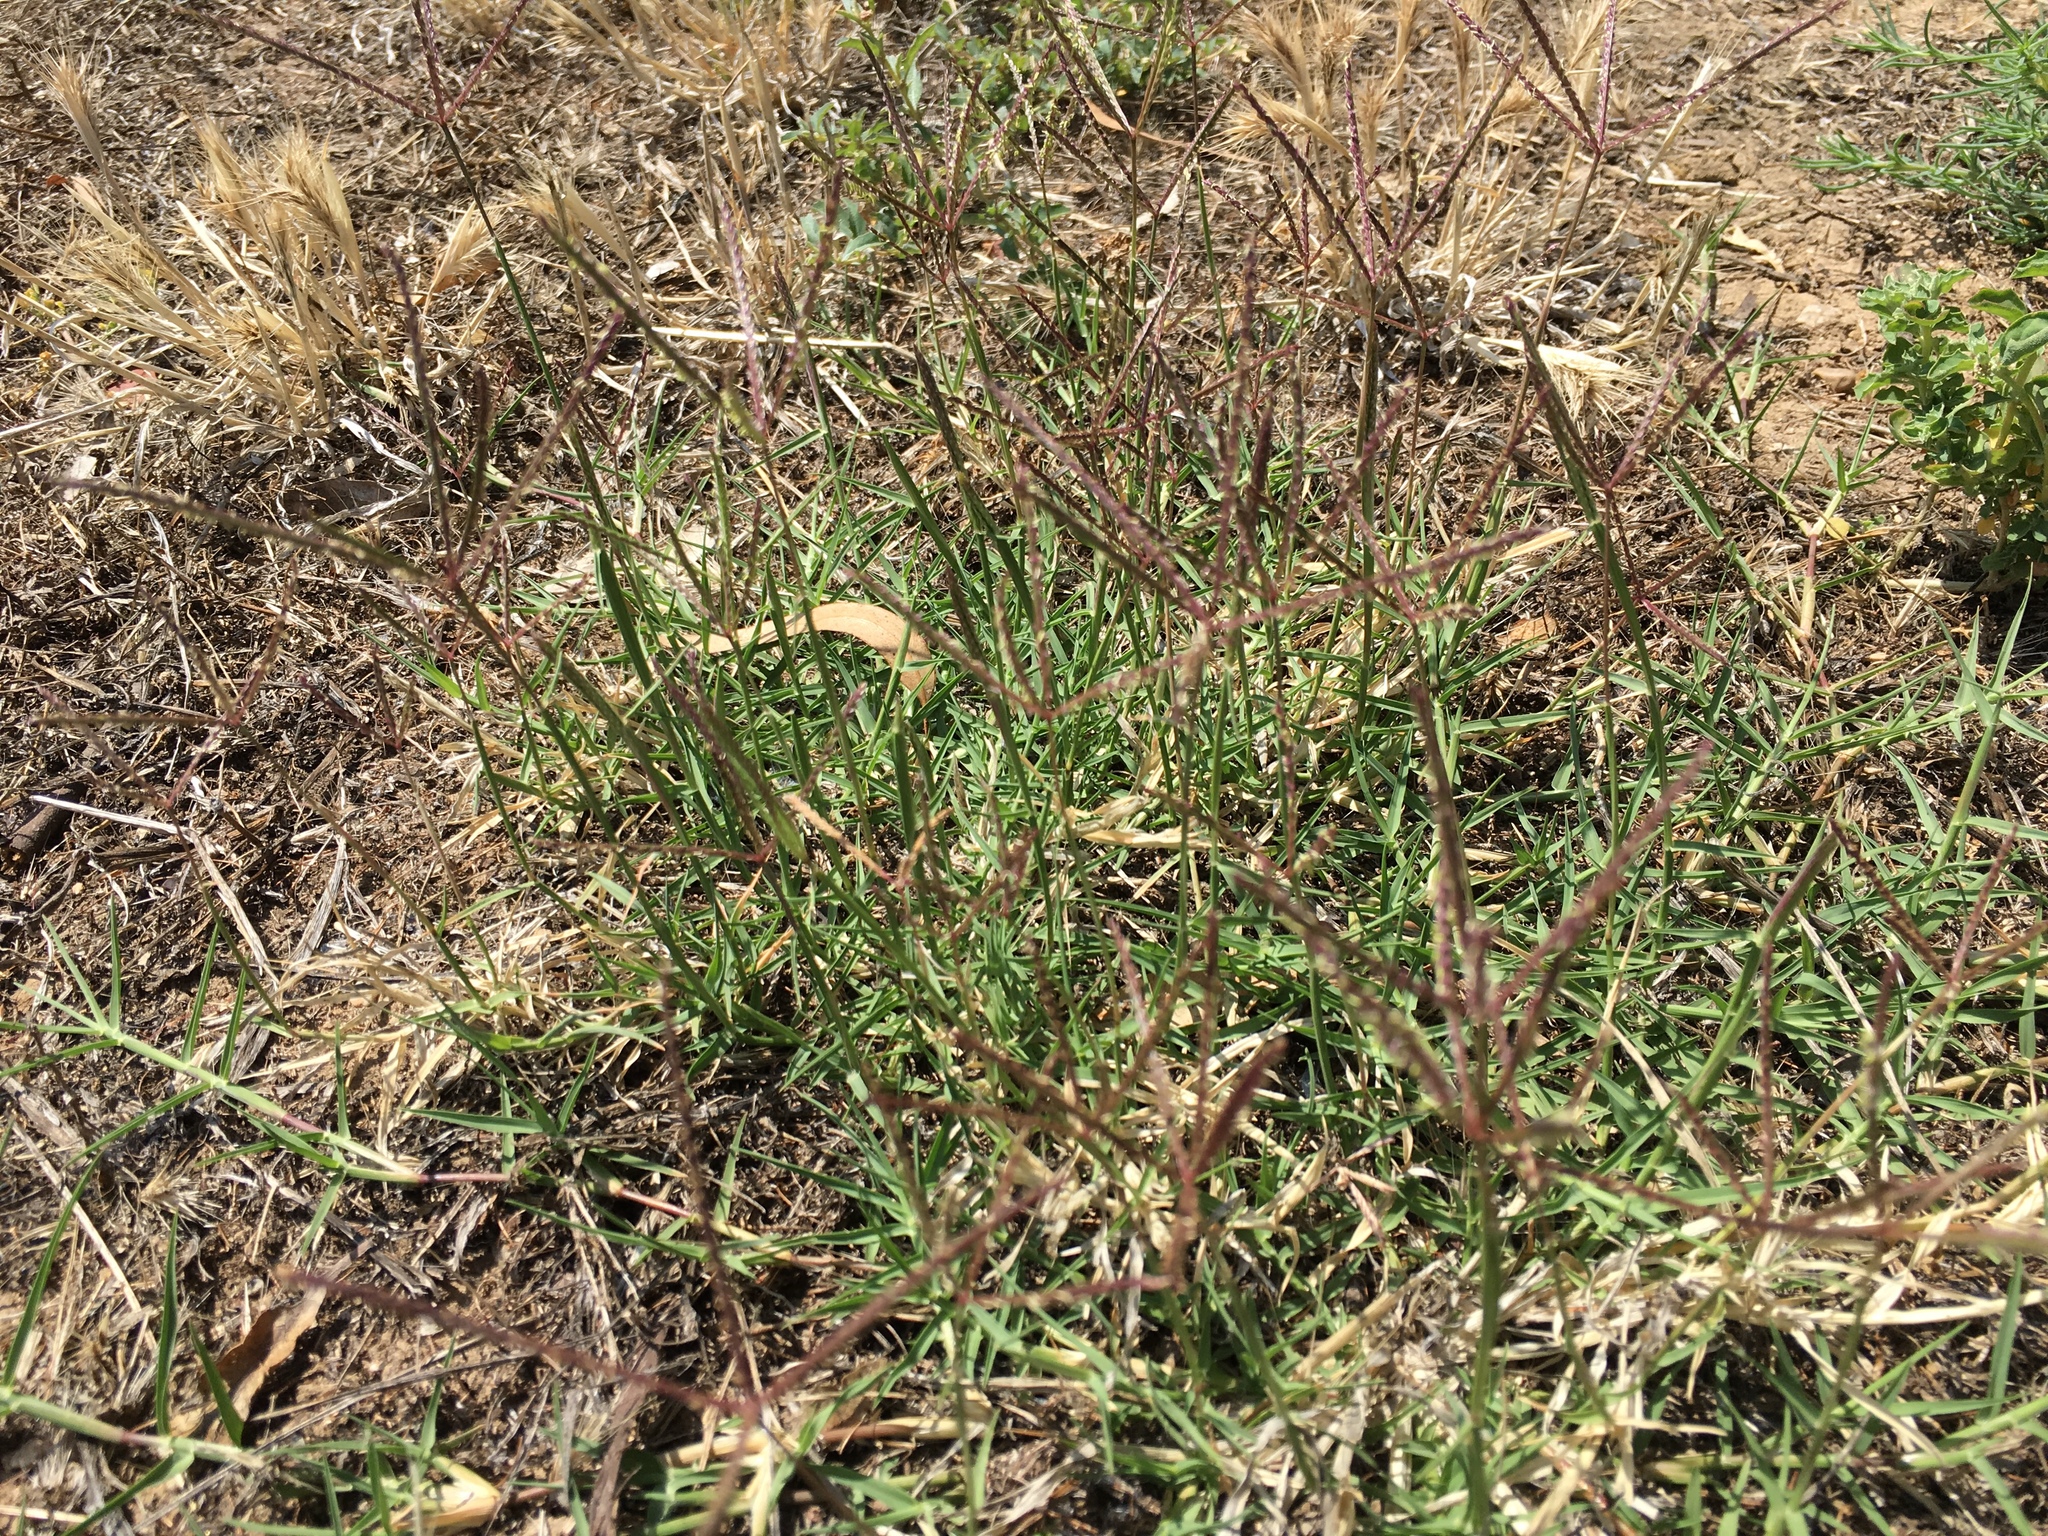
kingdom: Plantae
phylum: Tracheophyta
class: Liliopsida
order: Poales
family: Poaceae
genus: Cynodon
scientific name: Cynodon dactylon
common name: Bermuda grass
